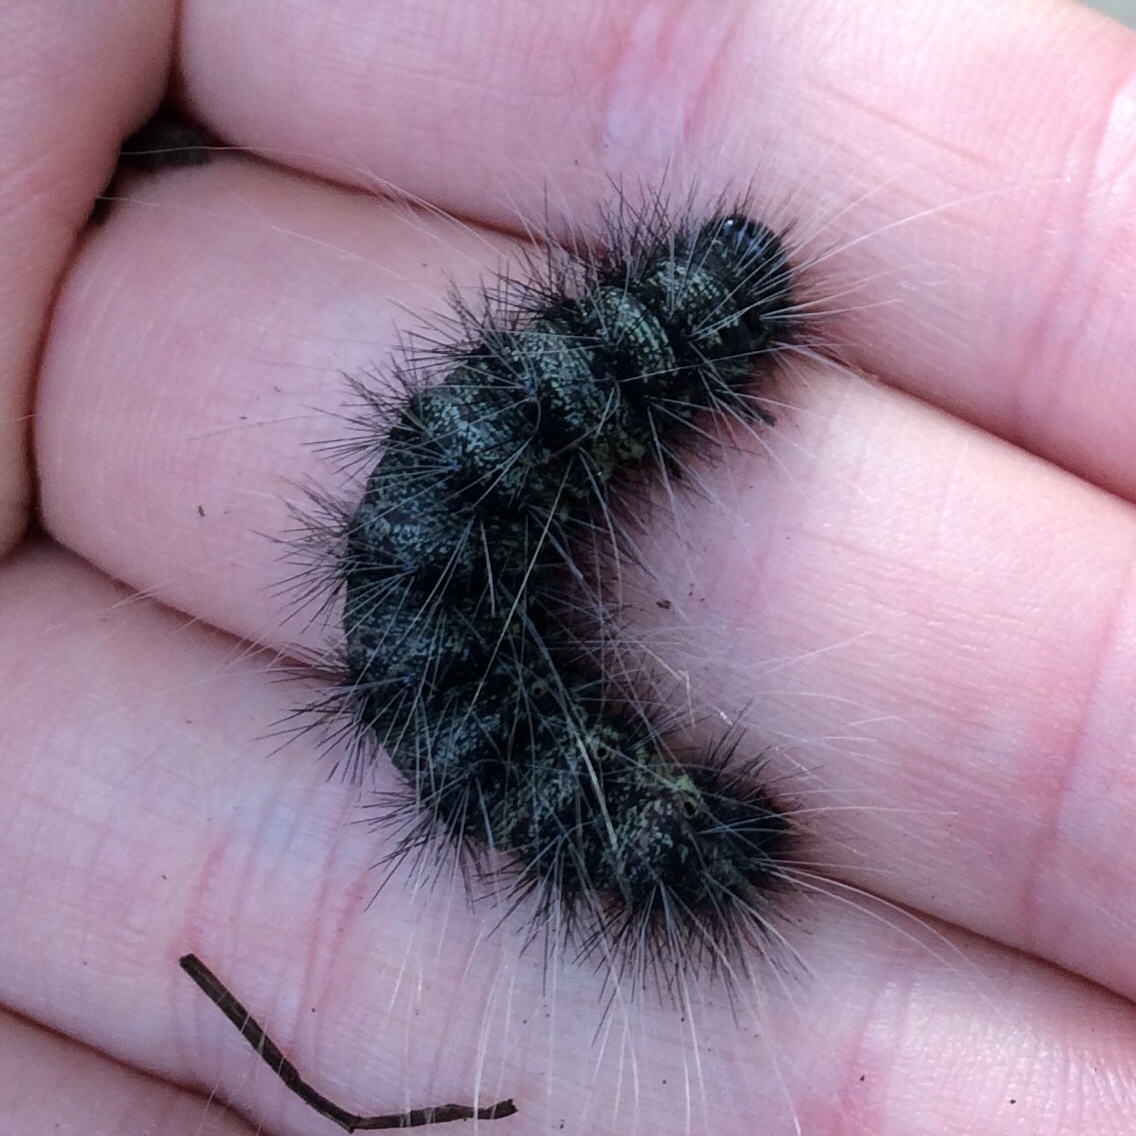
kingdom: Animalia
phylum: Arthropoda
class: Insecta
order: Lepidoptera
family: Notodontidae
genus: Anaphe
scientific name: Anaphe reticulata
